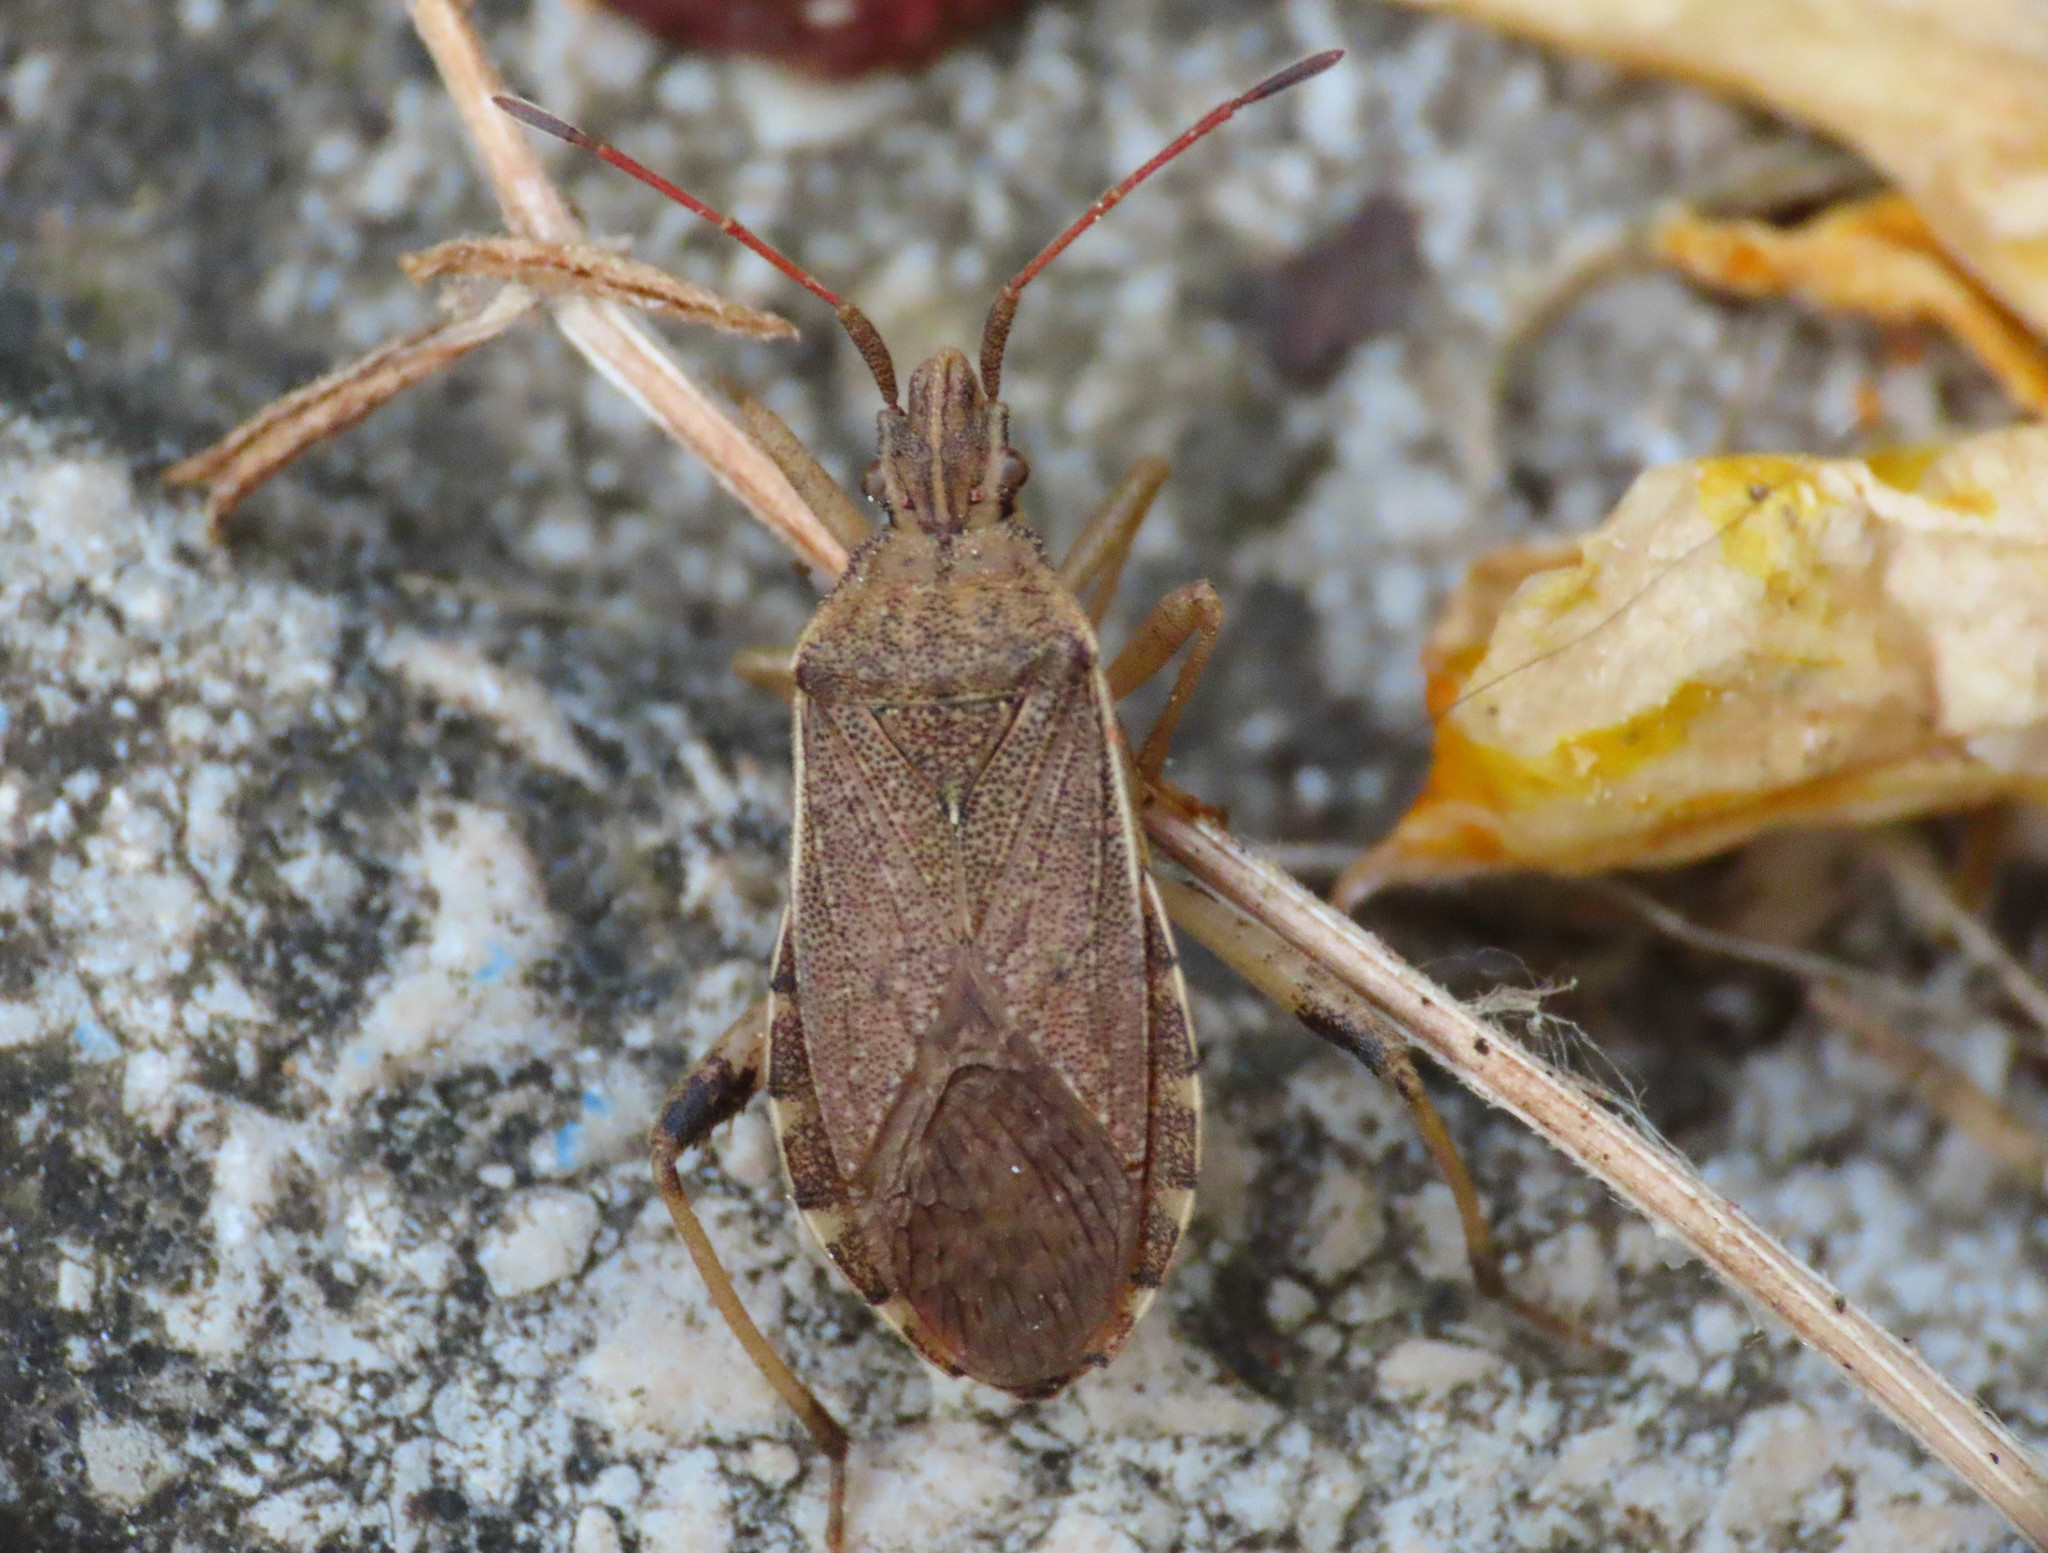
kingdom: Animalia
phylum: Arthropoda
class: Insecta
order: Hemiptera
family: Coreidae
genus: Ceraleptus
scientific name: Ceraleptus lividus
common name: Slender-horned leatherbug
